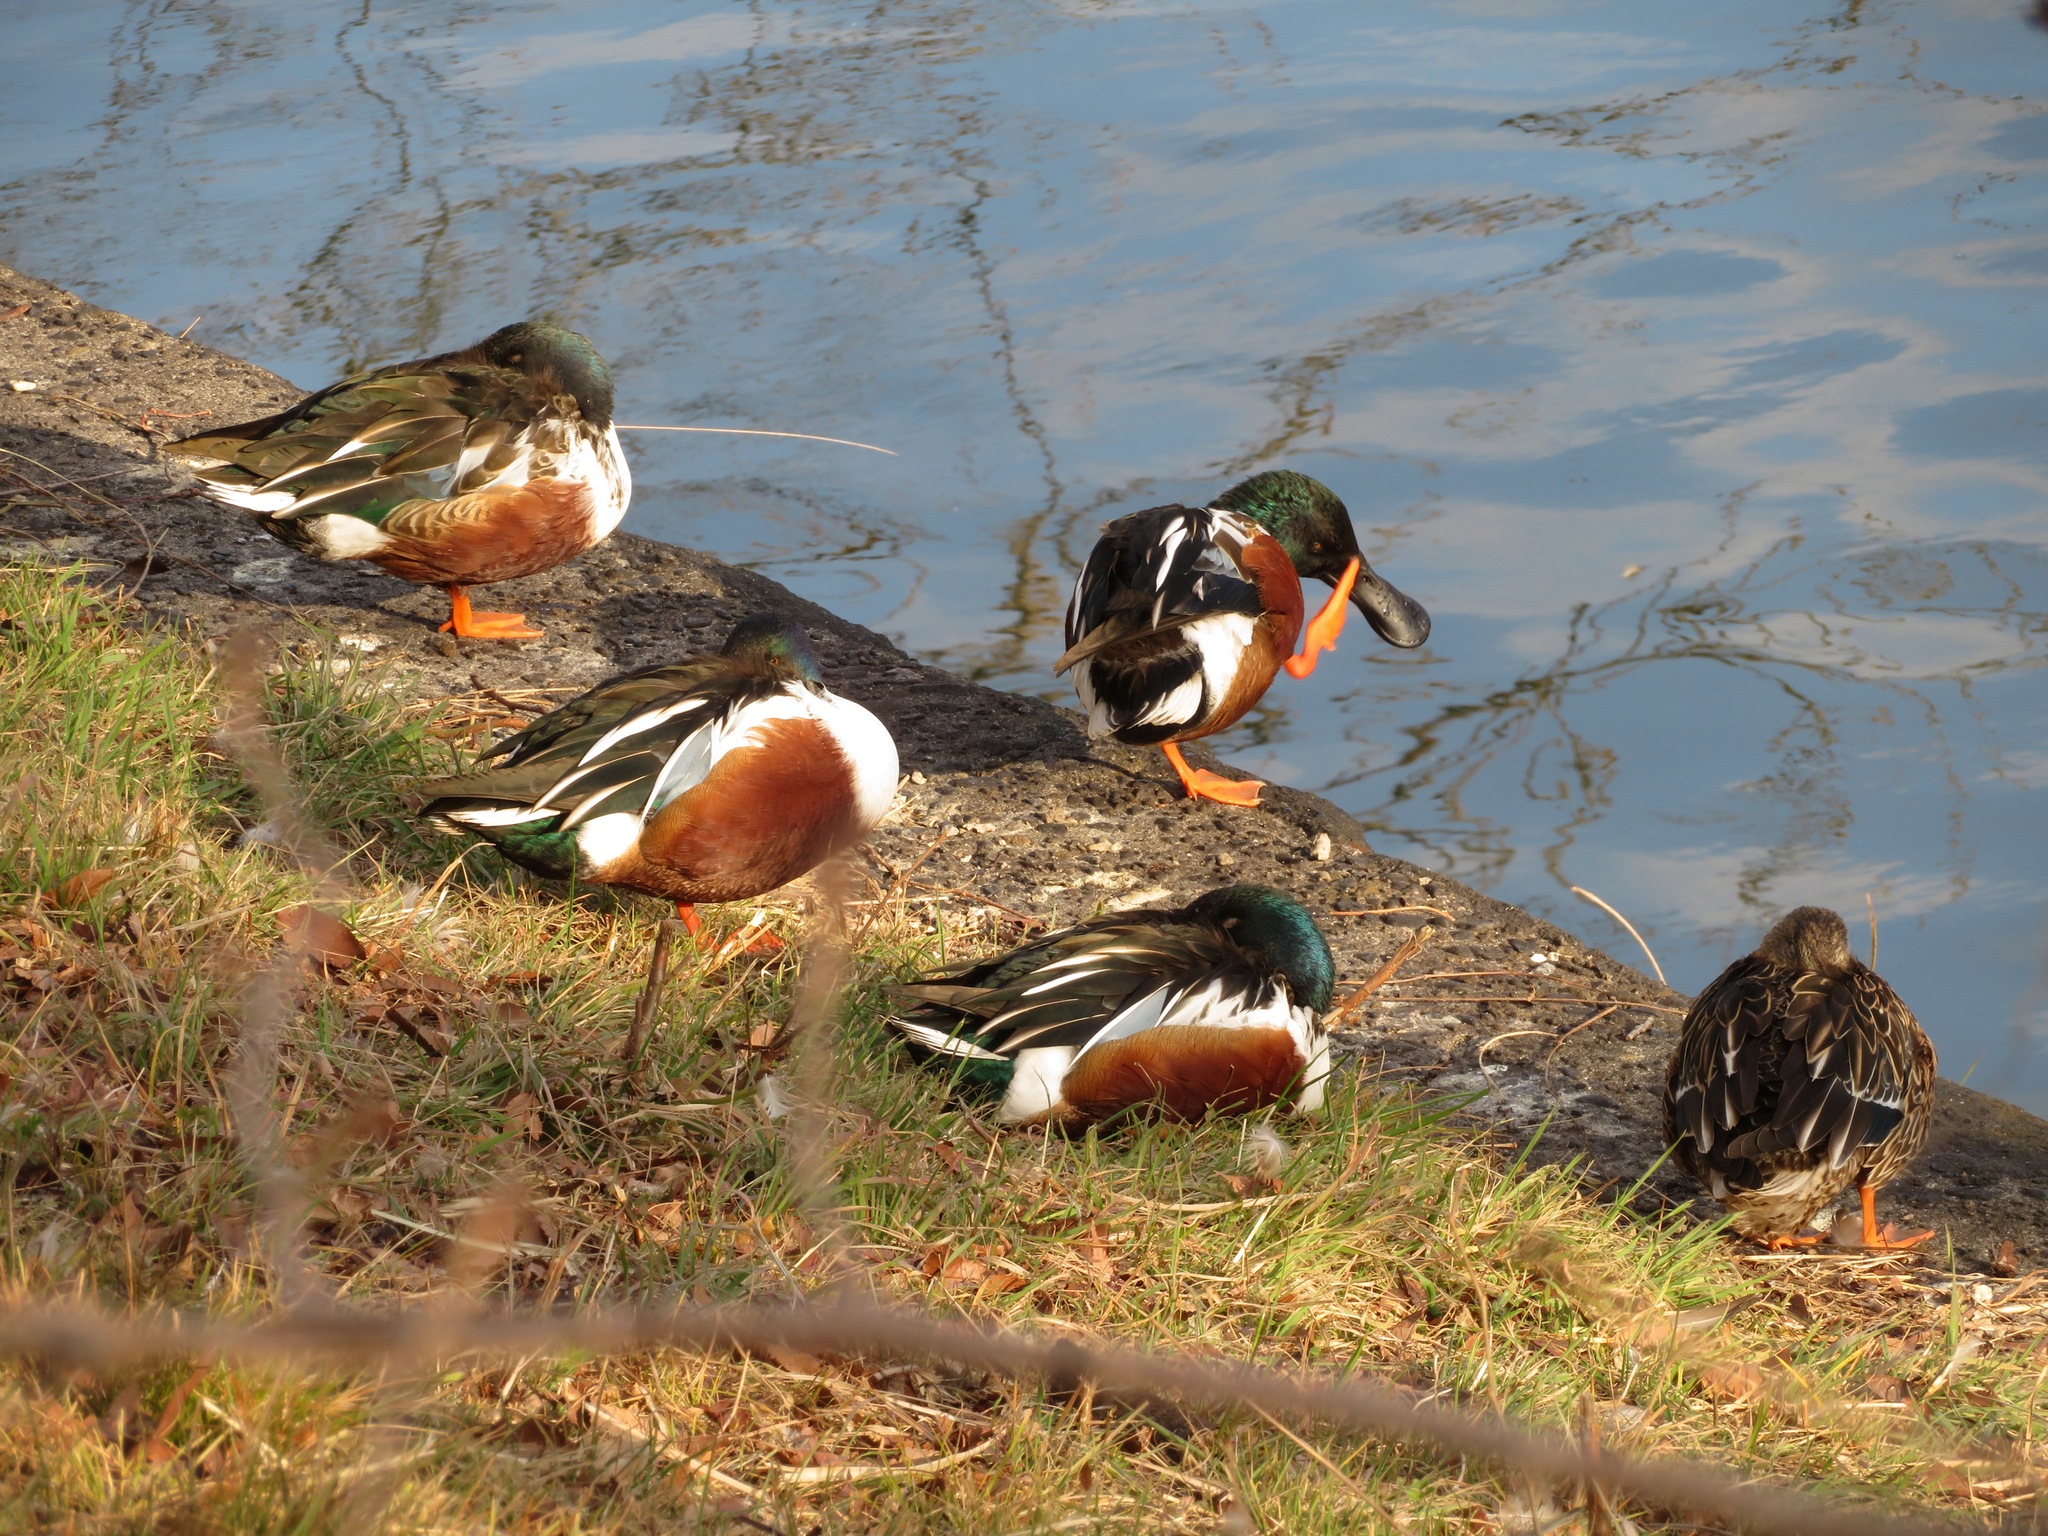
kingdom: Animalia
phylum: Chordata
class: Aves
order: Anseriformes
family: Anatidae
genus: Spatula
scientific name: Spatula clypeata
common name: Northern shoveler
